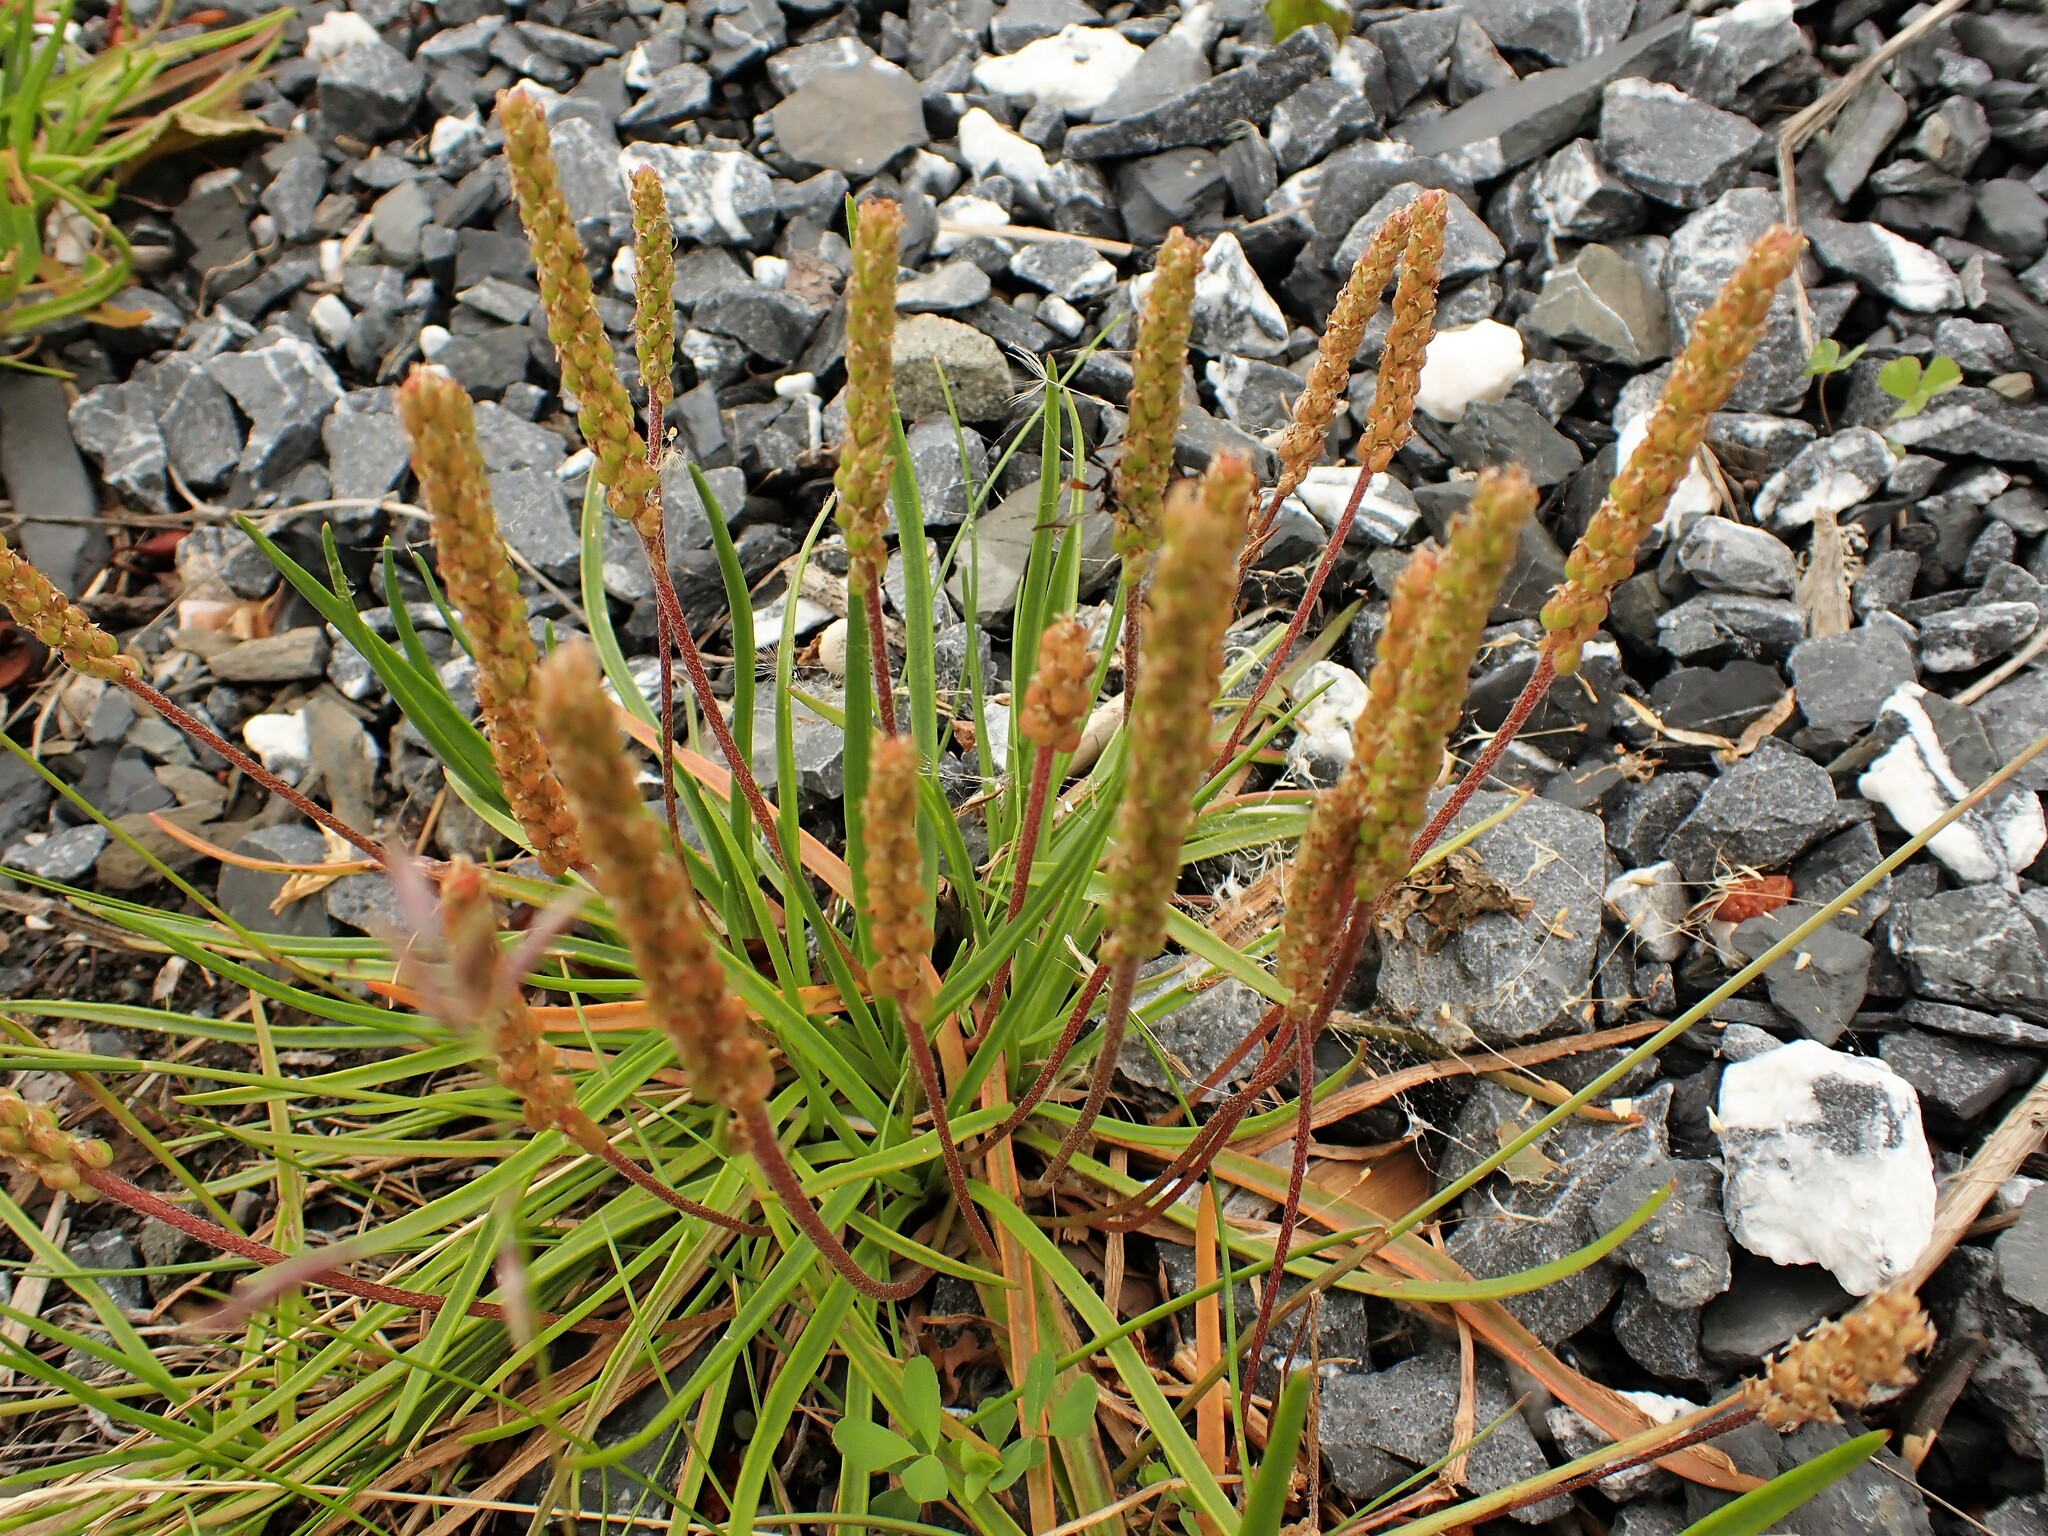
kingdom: Plantae
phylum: Tracheophyta
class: Magnoliopsida
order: Lamiales
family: Plantaginaceae
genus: Plantago
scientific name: Plantago maritima
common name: Sea plantain
